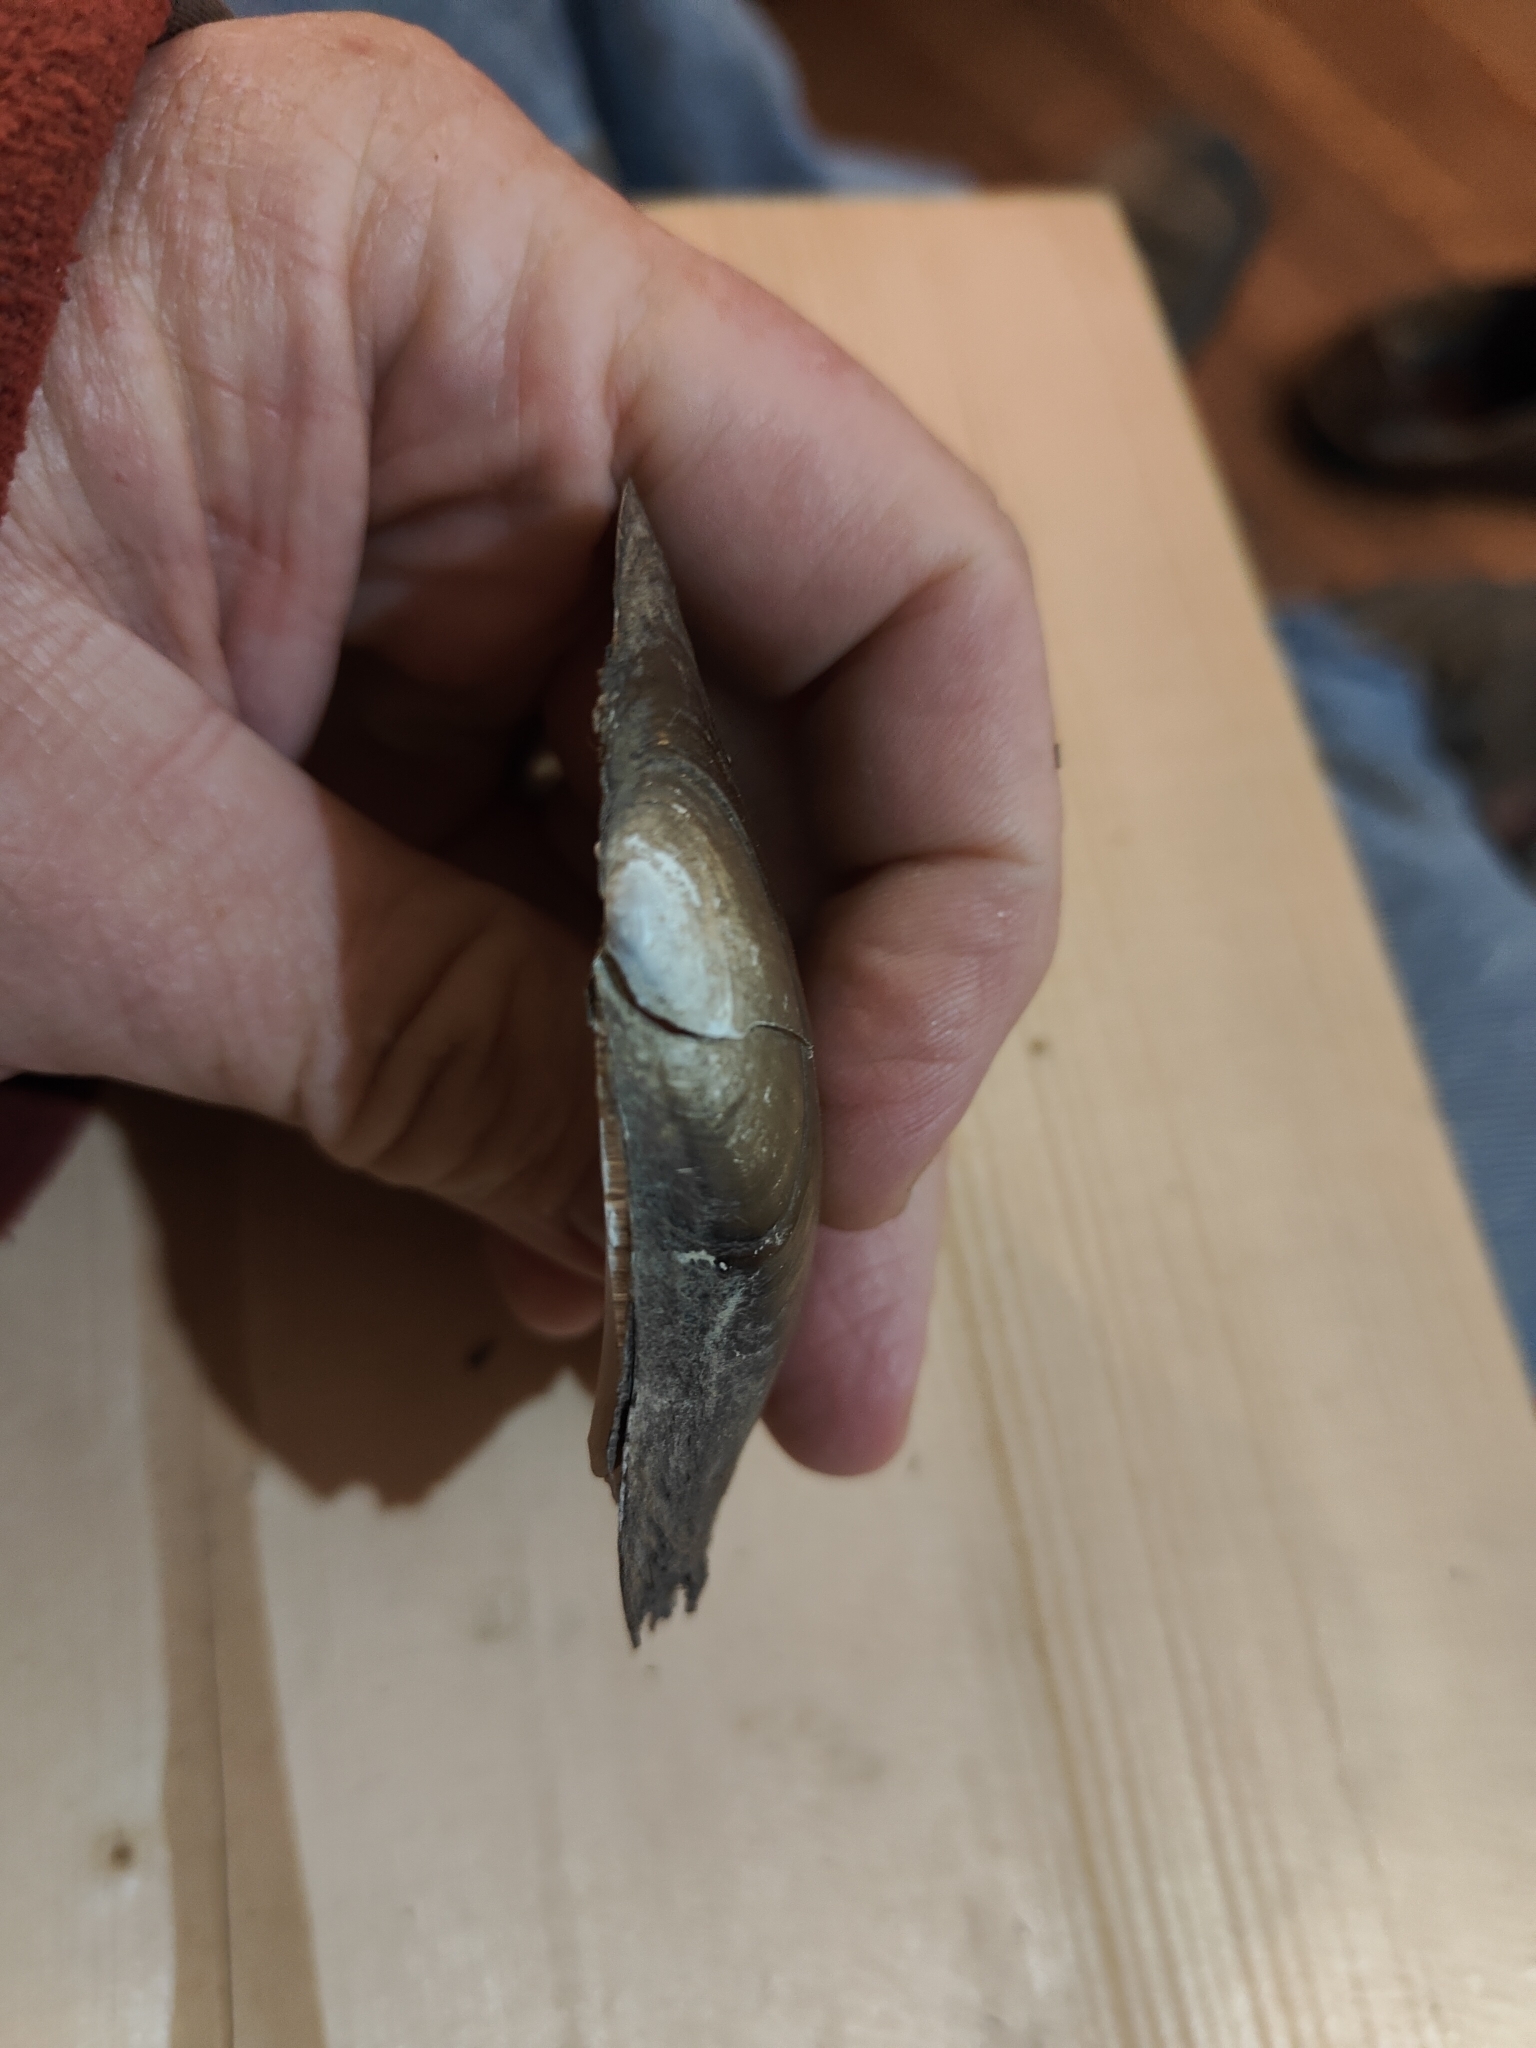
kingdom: Animalia
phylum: Mollusca
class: Bivalvia
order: Unionida
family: Unionidae
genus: Potamilus
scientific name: Potamilus fragilis
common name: Fragile papershell
